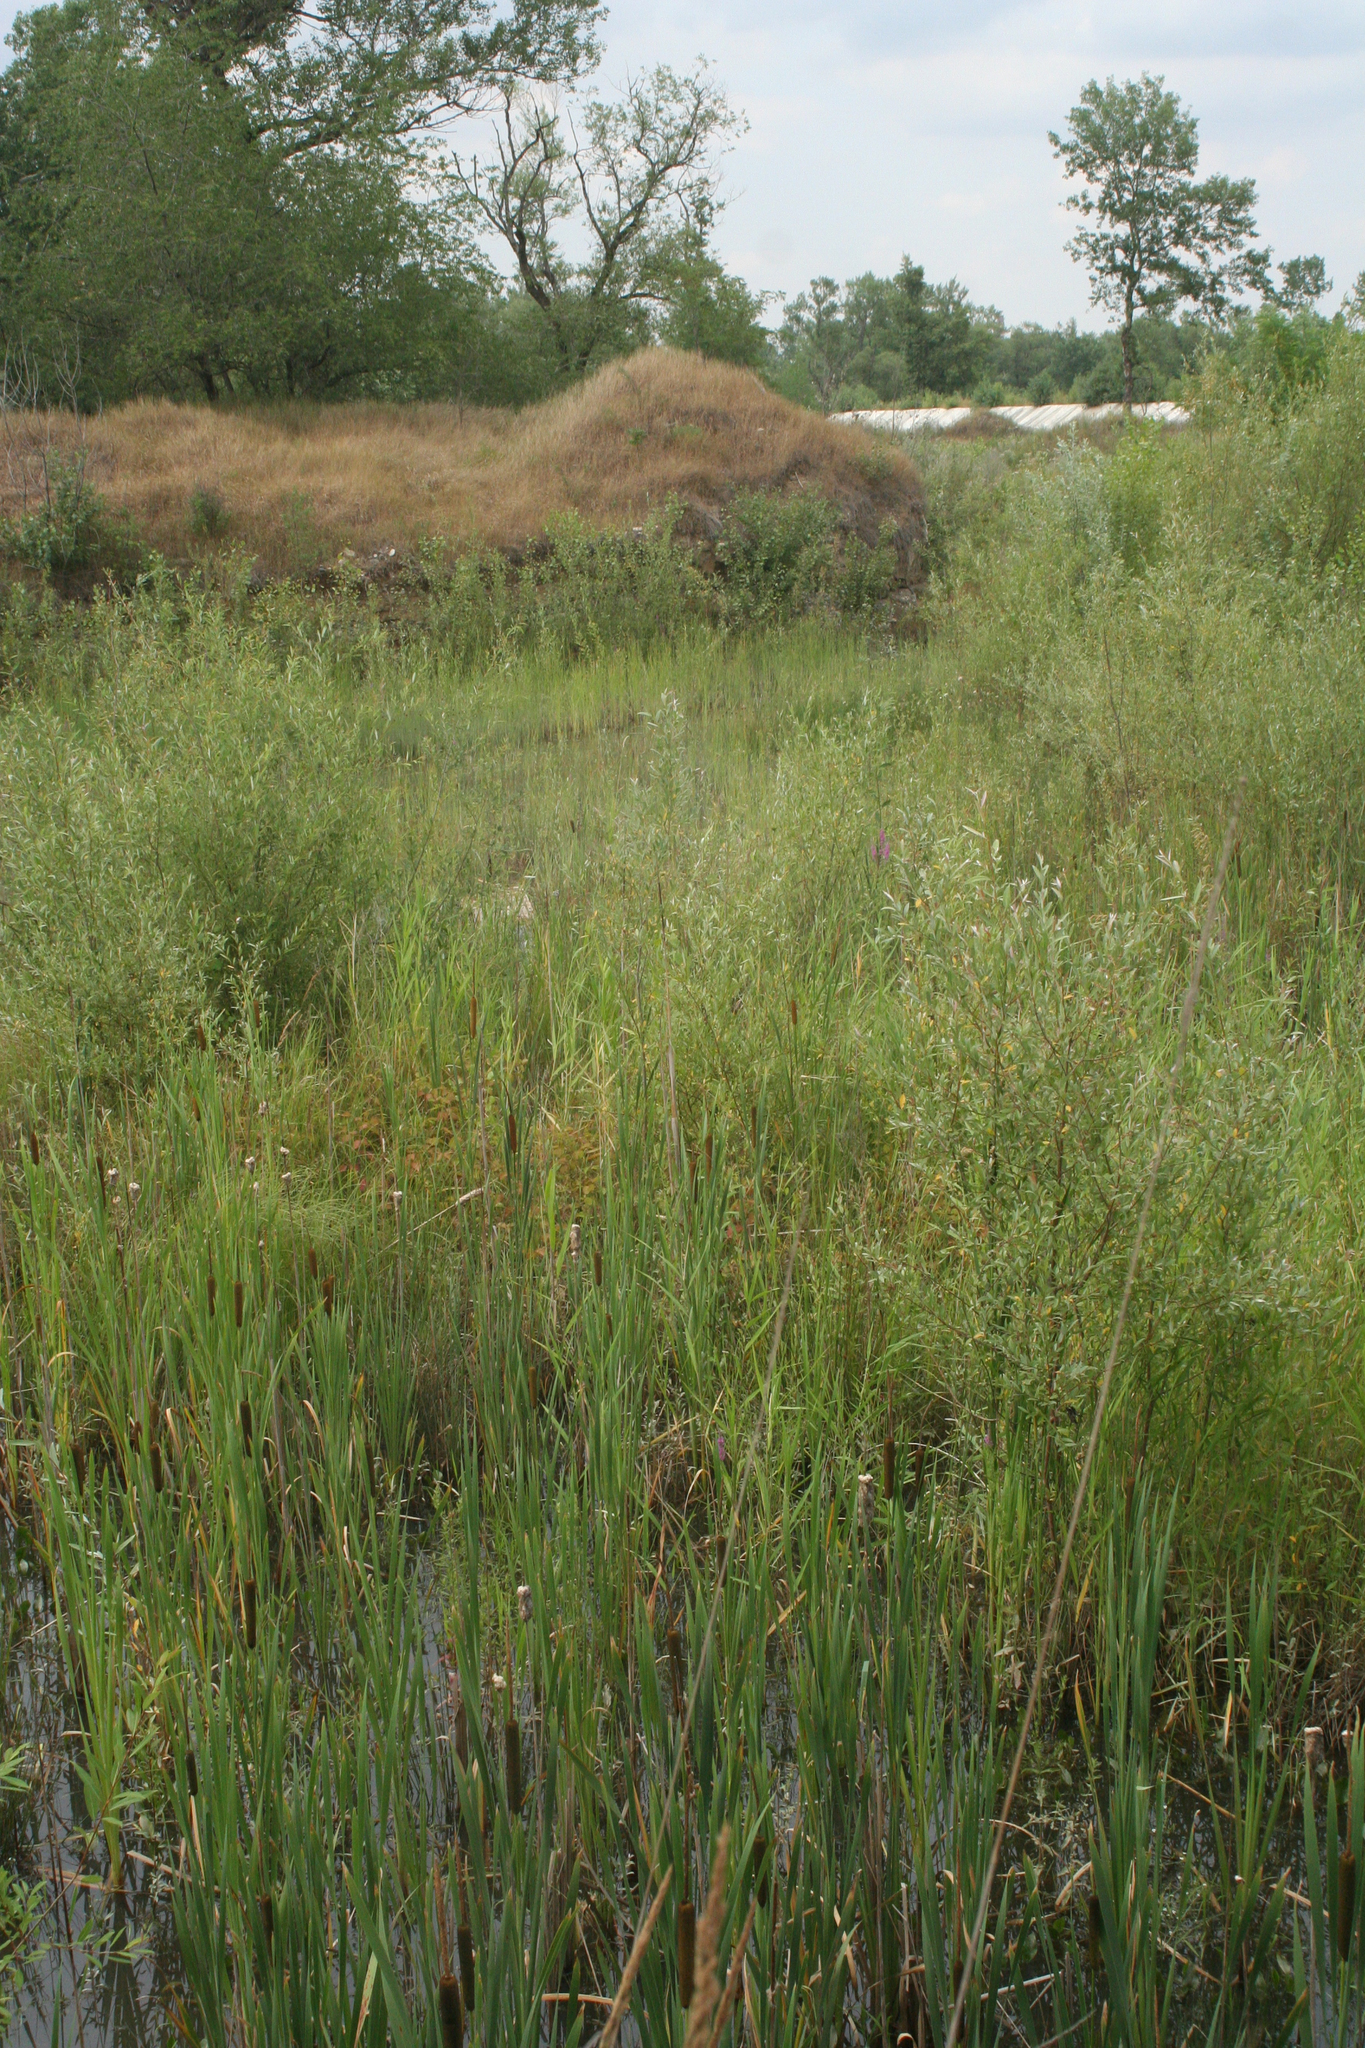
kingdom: Plantae
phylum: Tracheophyta
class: Liliopsida
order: Poales
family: Typhaceae
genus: Typha
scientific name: Typha latifolia
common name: Broadleaf cattail
